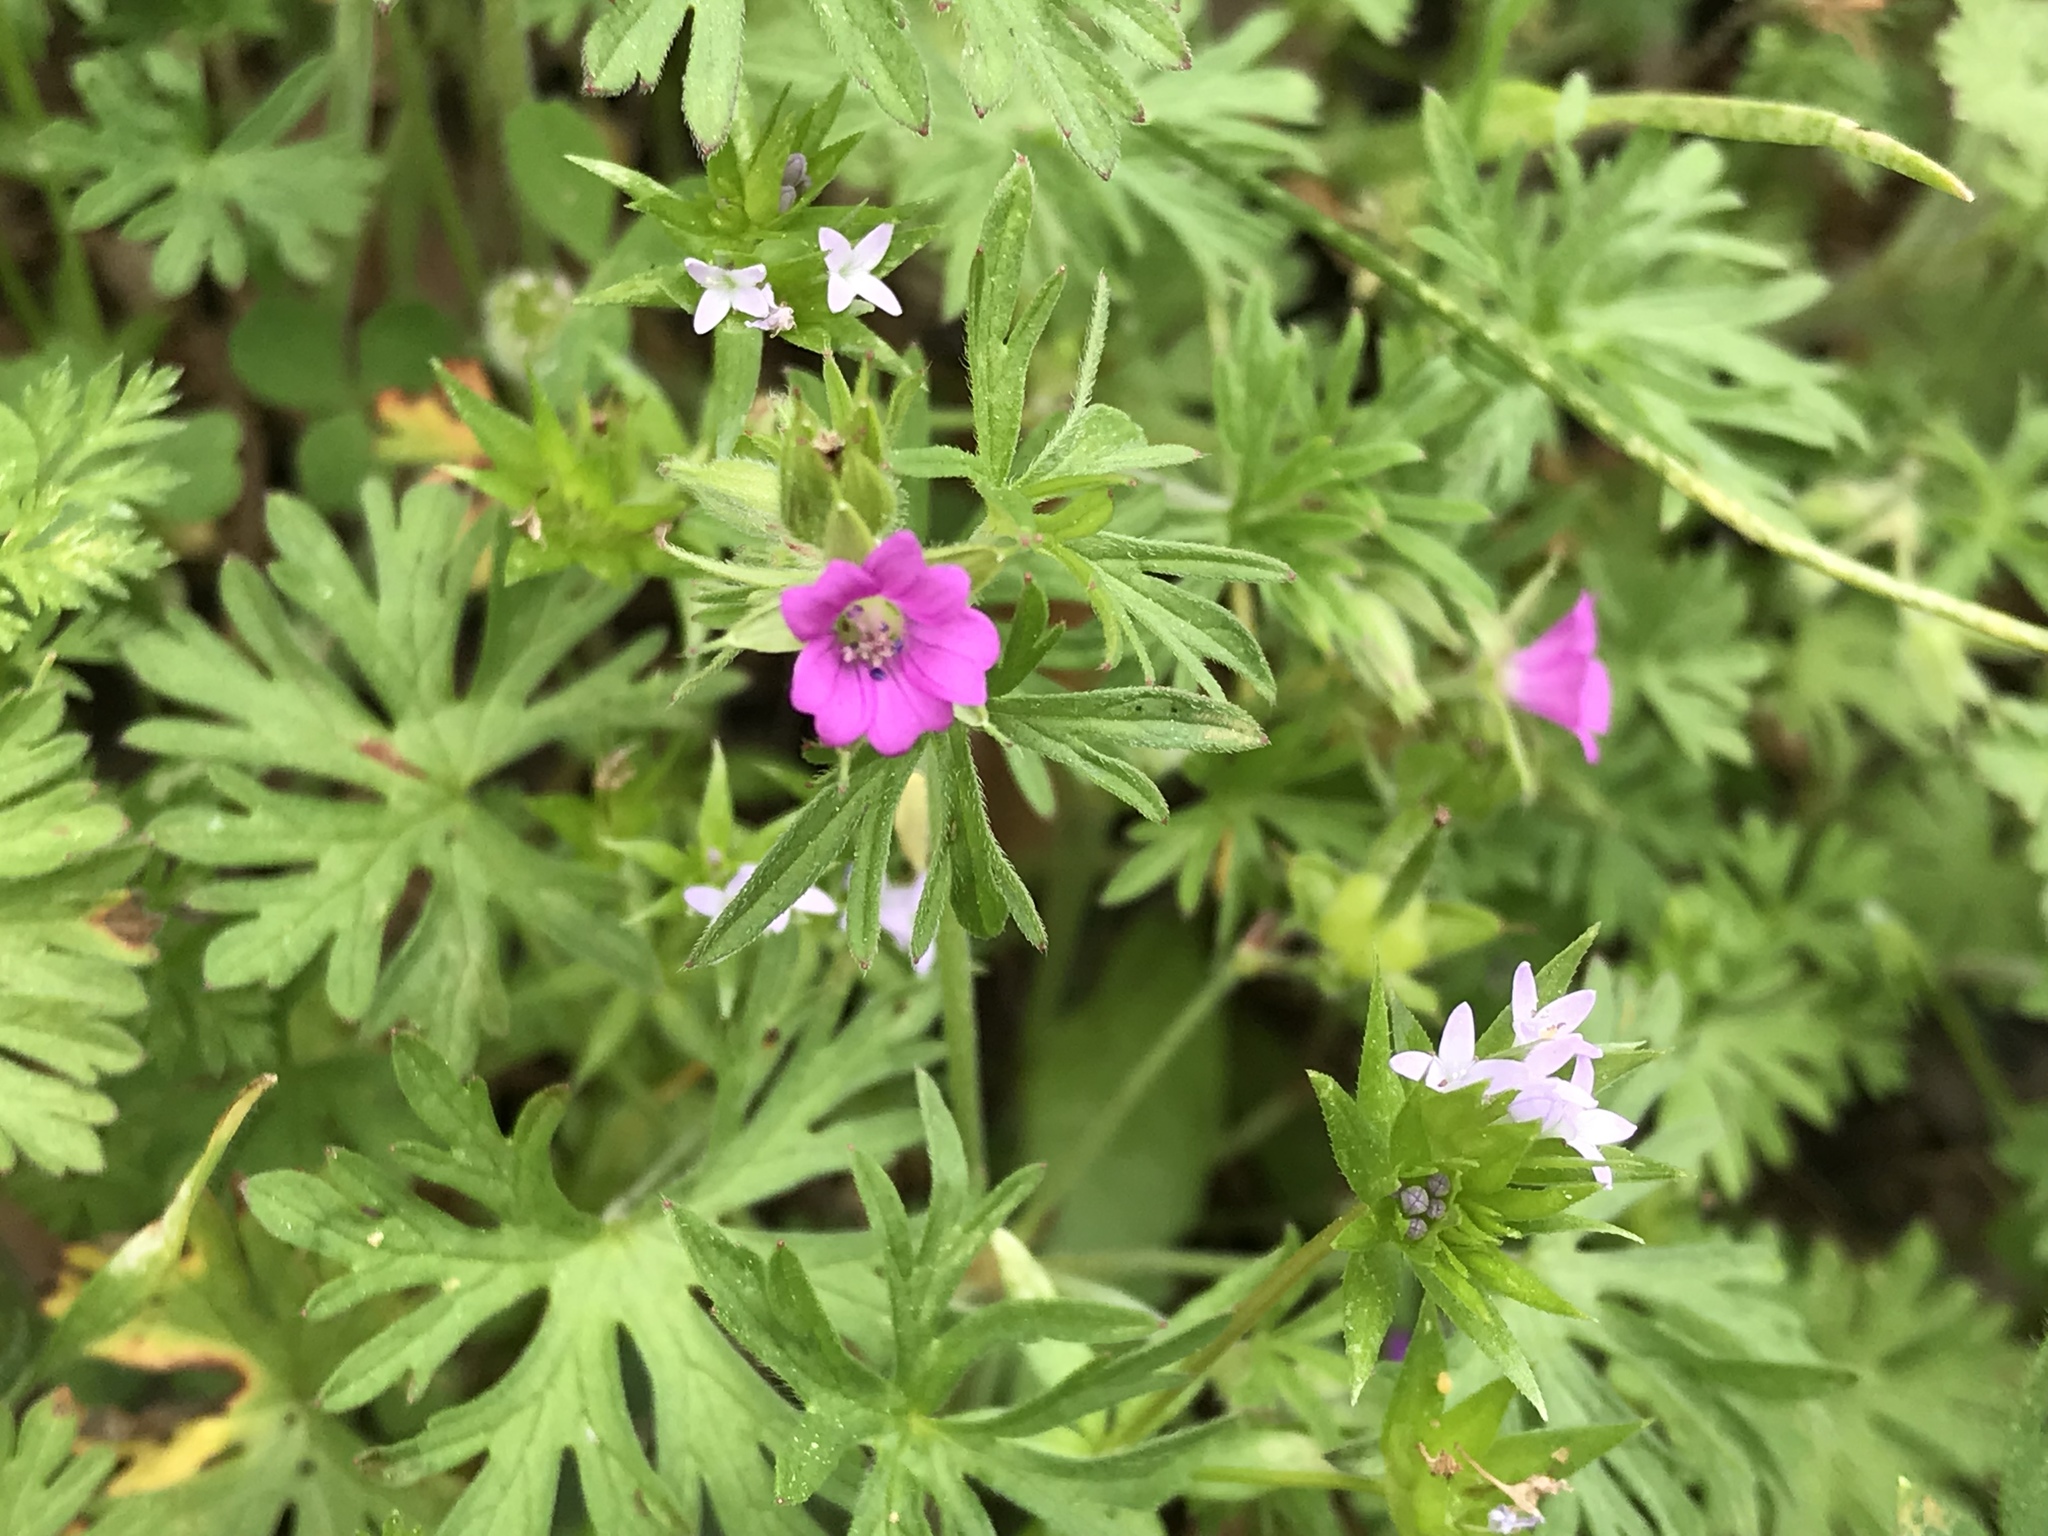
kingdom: Plantae
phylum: Tracheophyta
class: Magnoliopsida
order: Geraniales
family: Geraniaceae
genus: Geranium
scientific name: Geranium dissectum
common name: Cut-leaved crane's-bill
